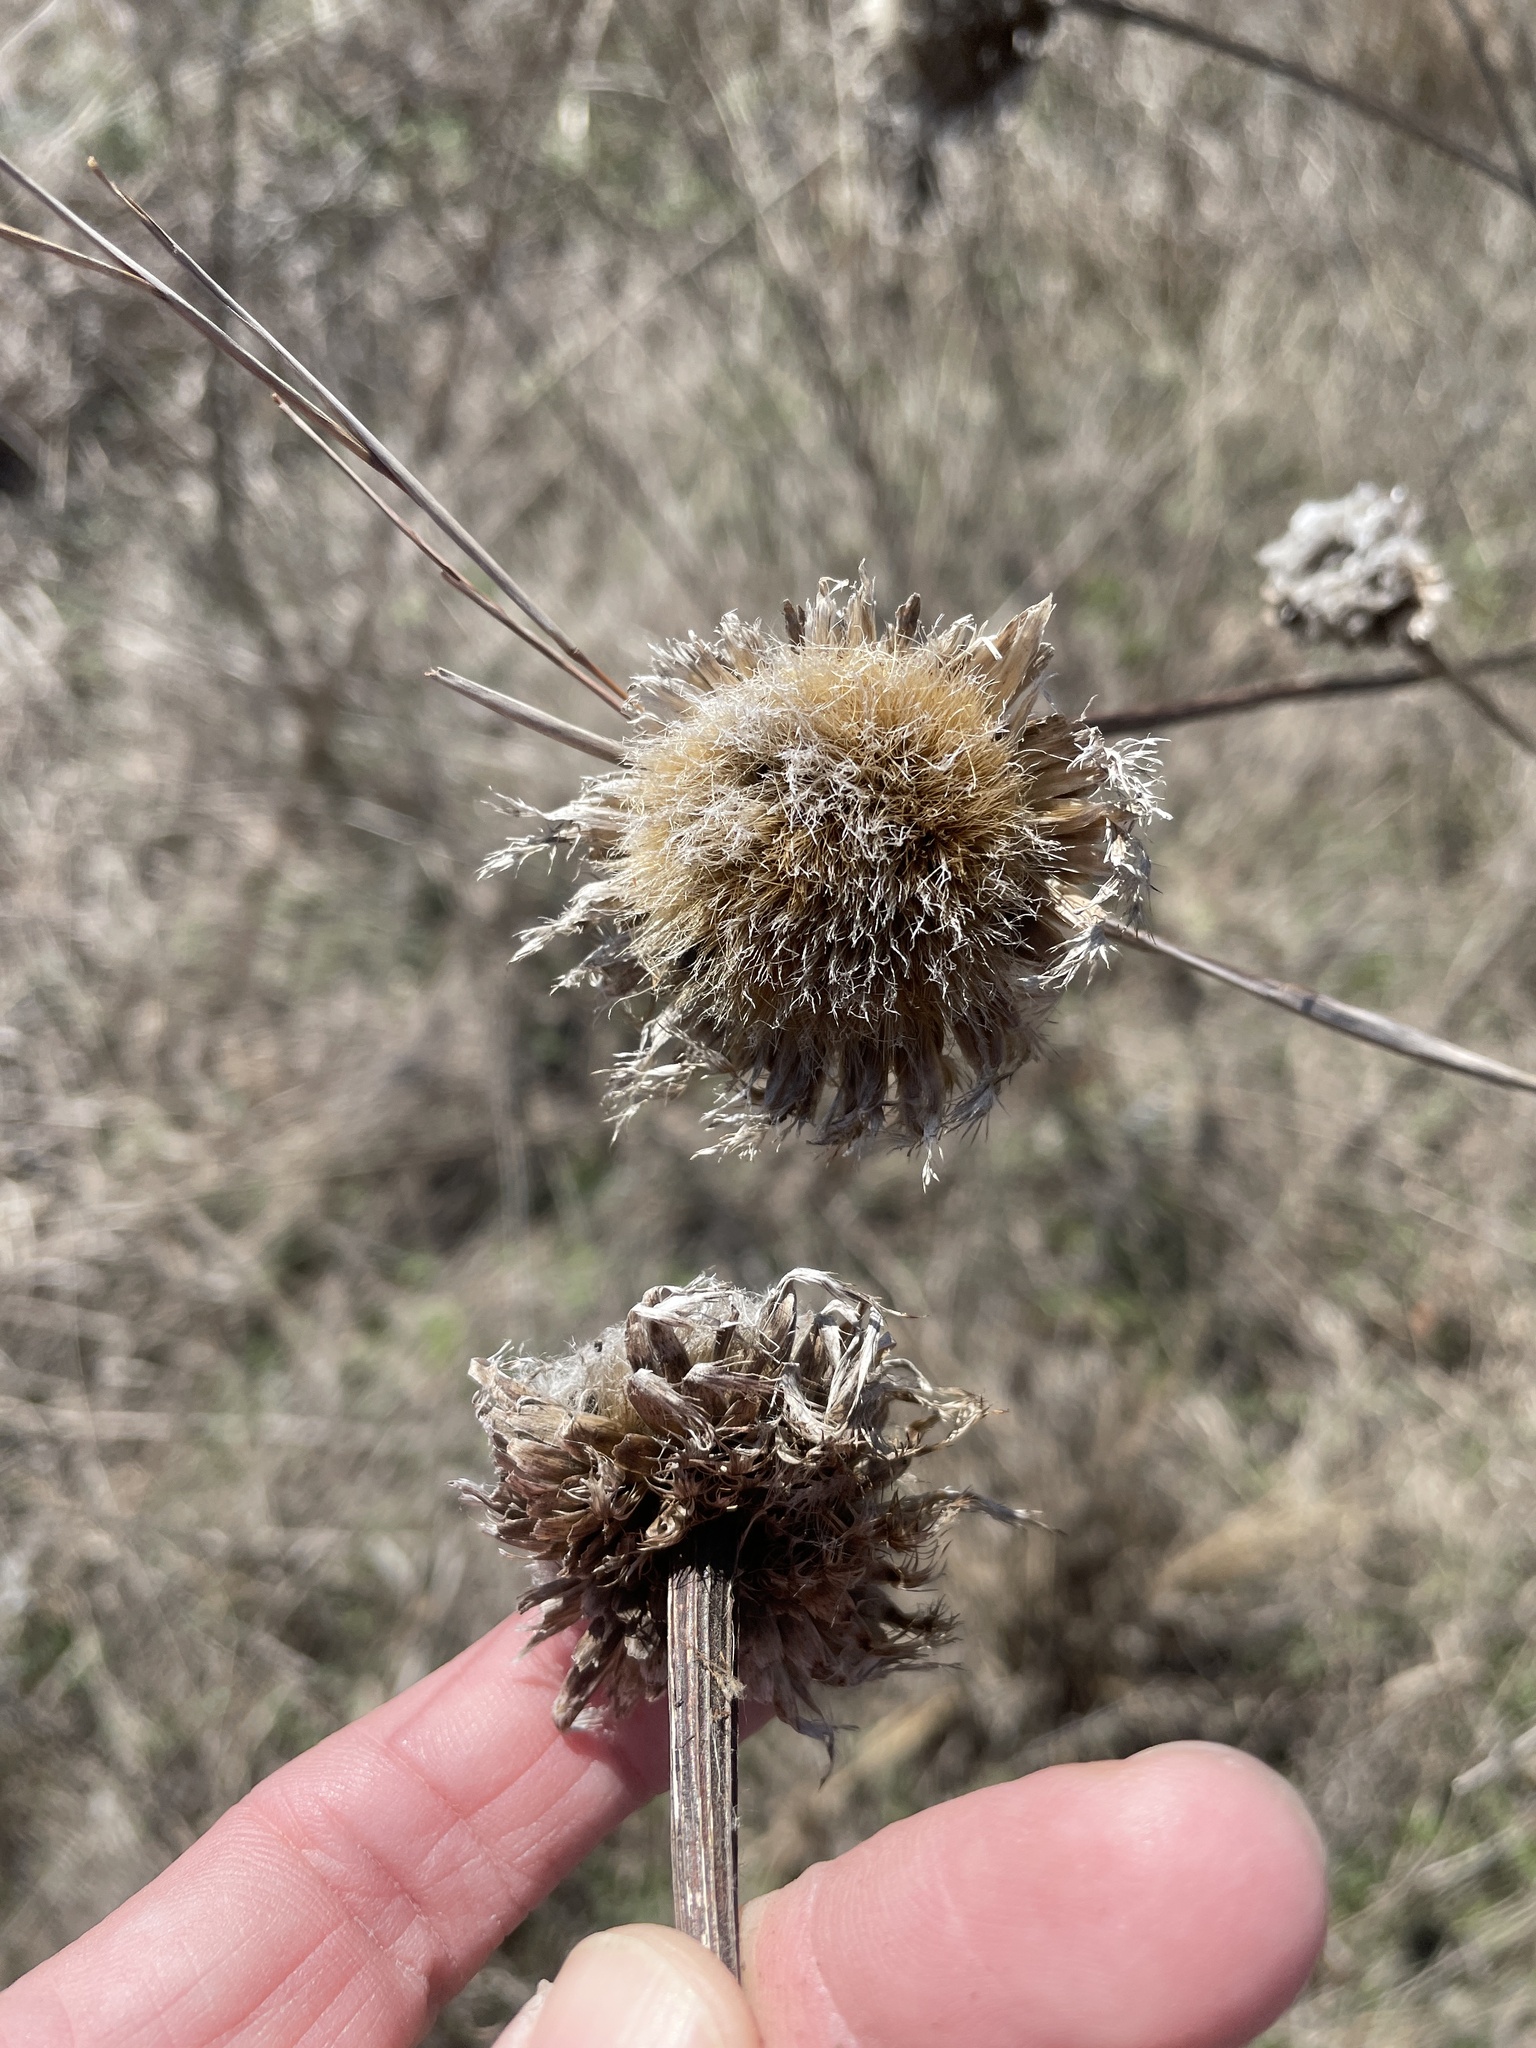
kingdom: Plantae
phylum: Tracheophyta
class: Magnoliopsida
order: Asterales
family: Asteraceae
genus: Plectocephalus
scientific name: Plectocephalus americanus
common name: American basket-flower
